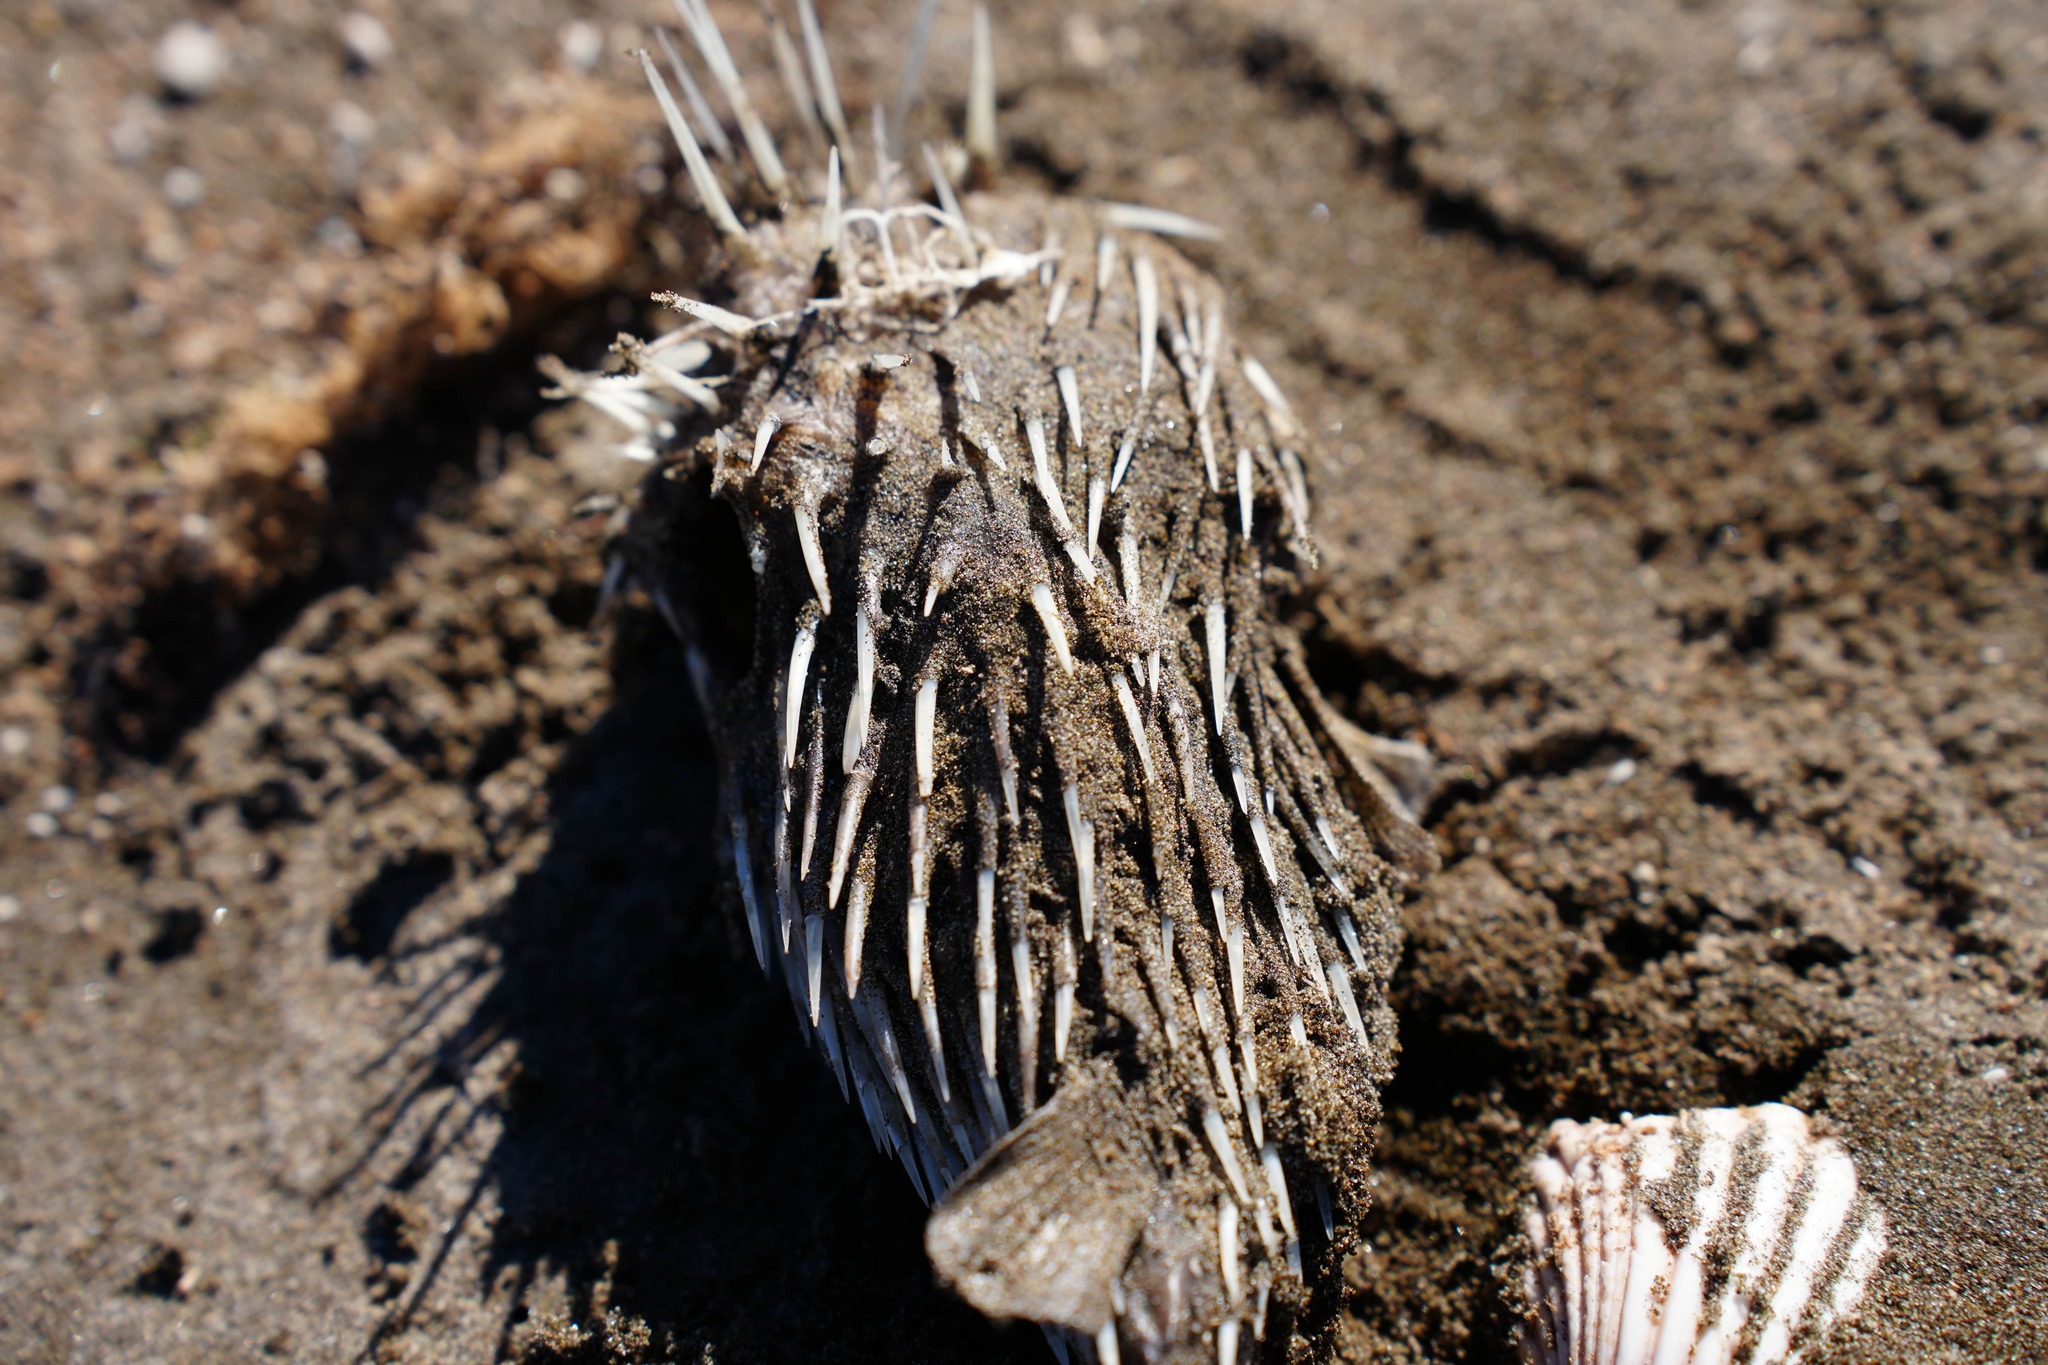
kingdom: Animalia
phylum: Chordata
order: Tetraodontiformes
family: Diodontidae
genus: Diodon
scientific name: Diodon holocanthus
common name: Balloonfish
